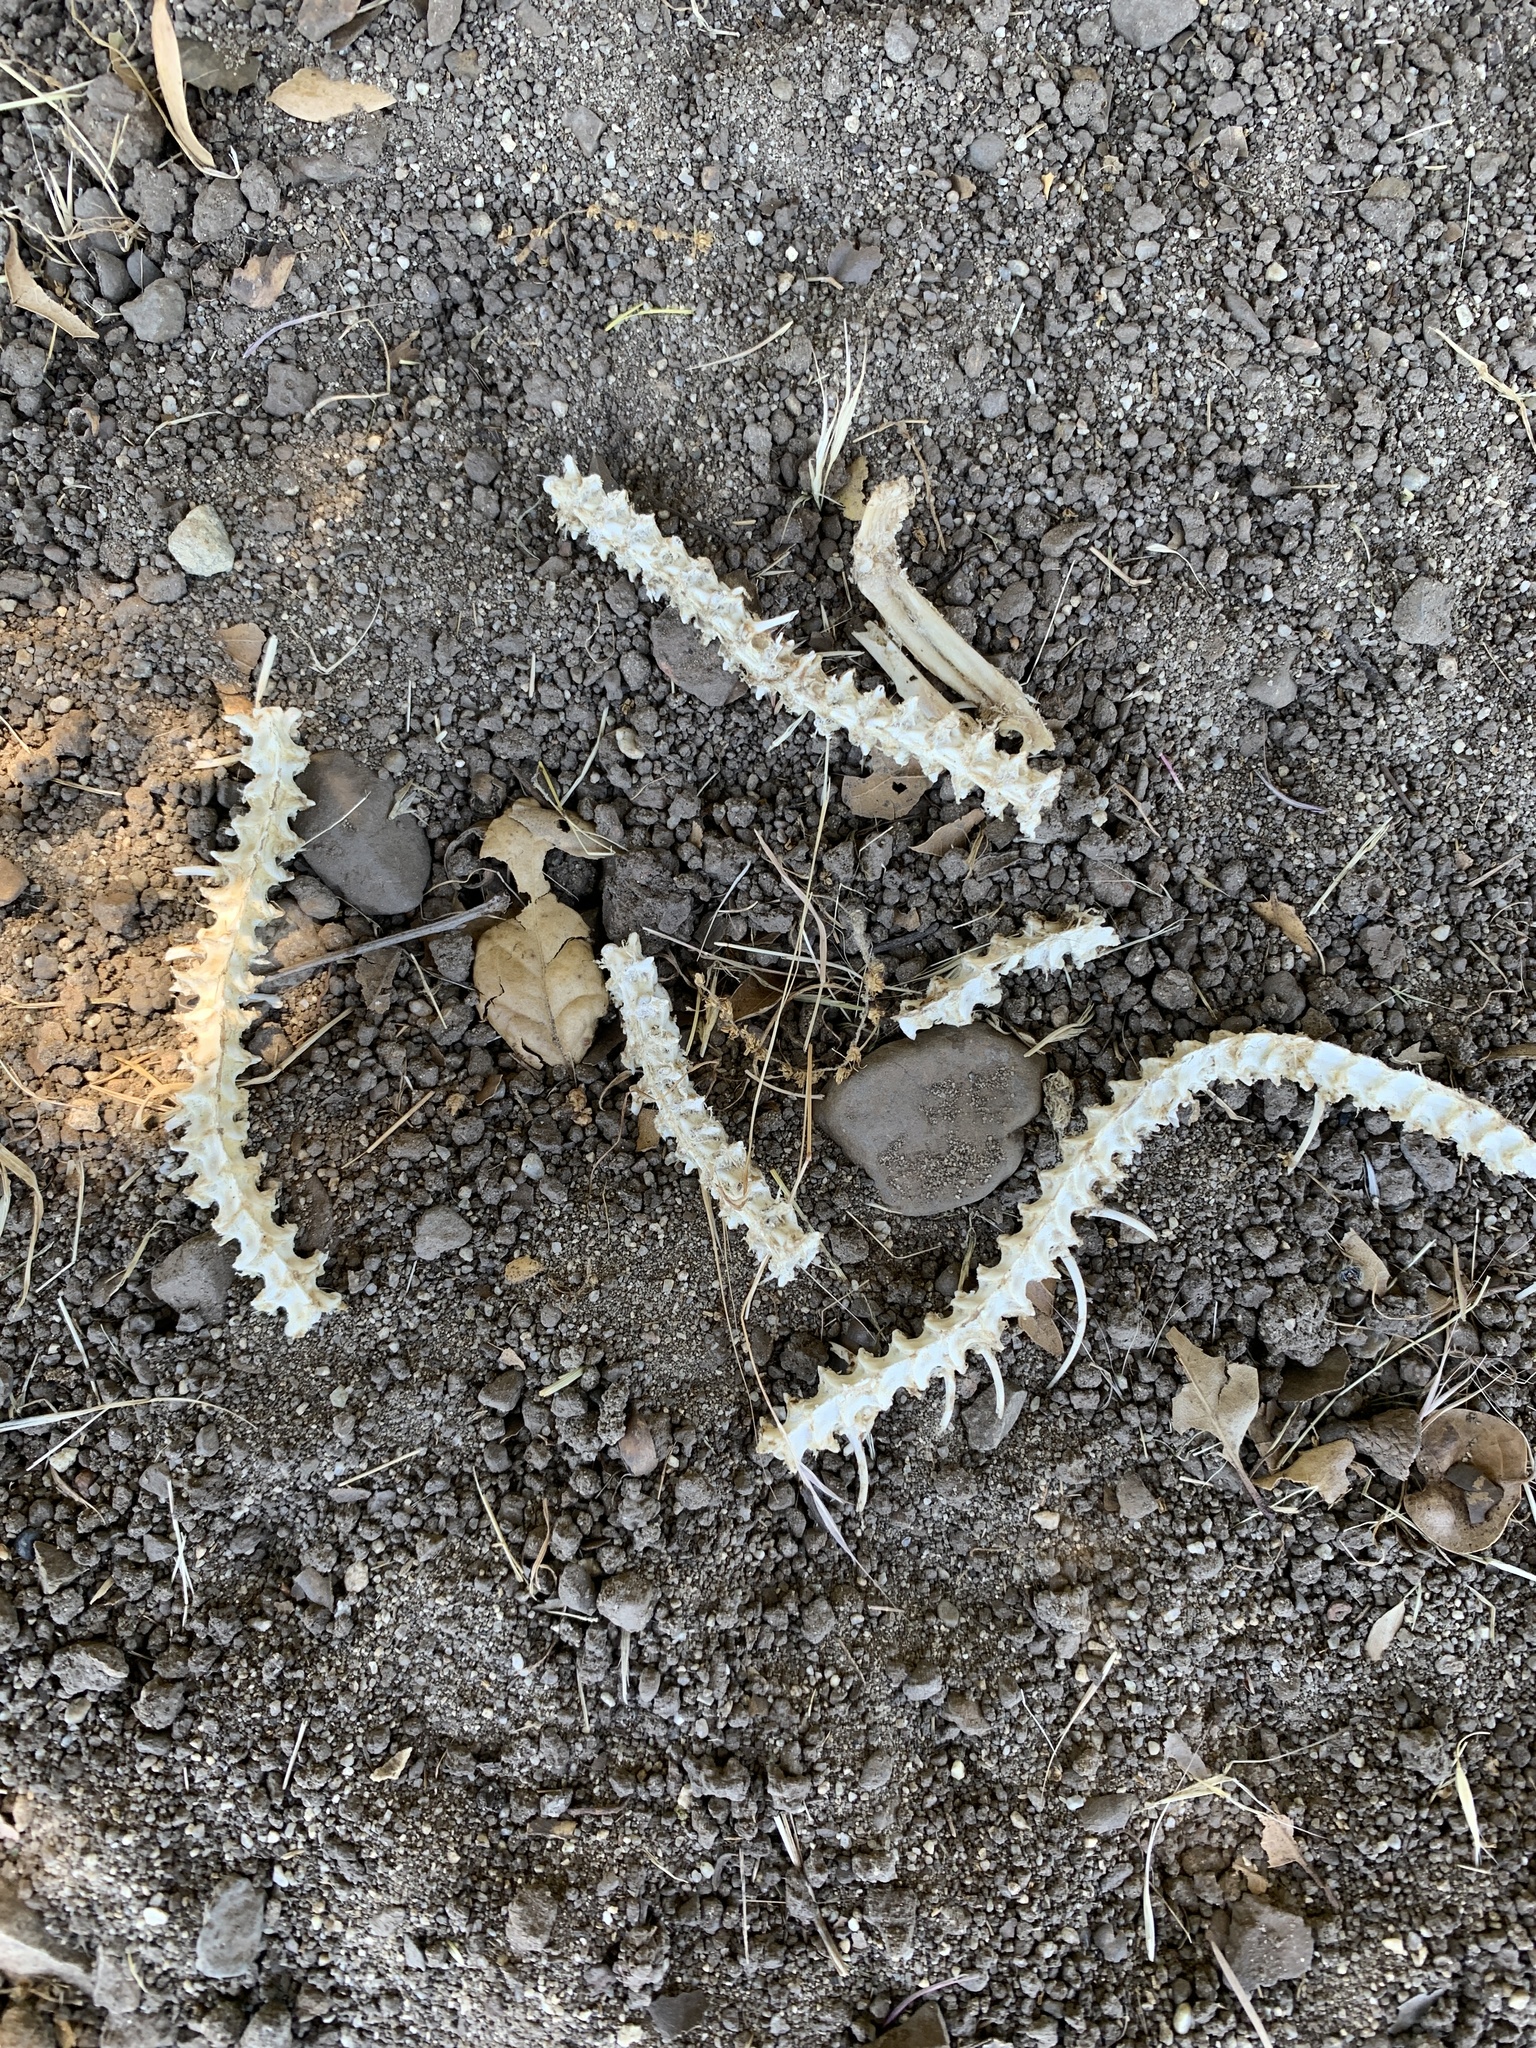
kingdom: Animalia
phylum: Chordata
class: Squamata
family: Viperidae
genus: Crotalus
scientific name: Crotalus oreganus
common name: Abyssus
